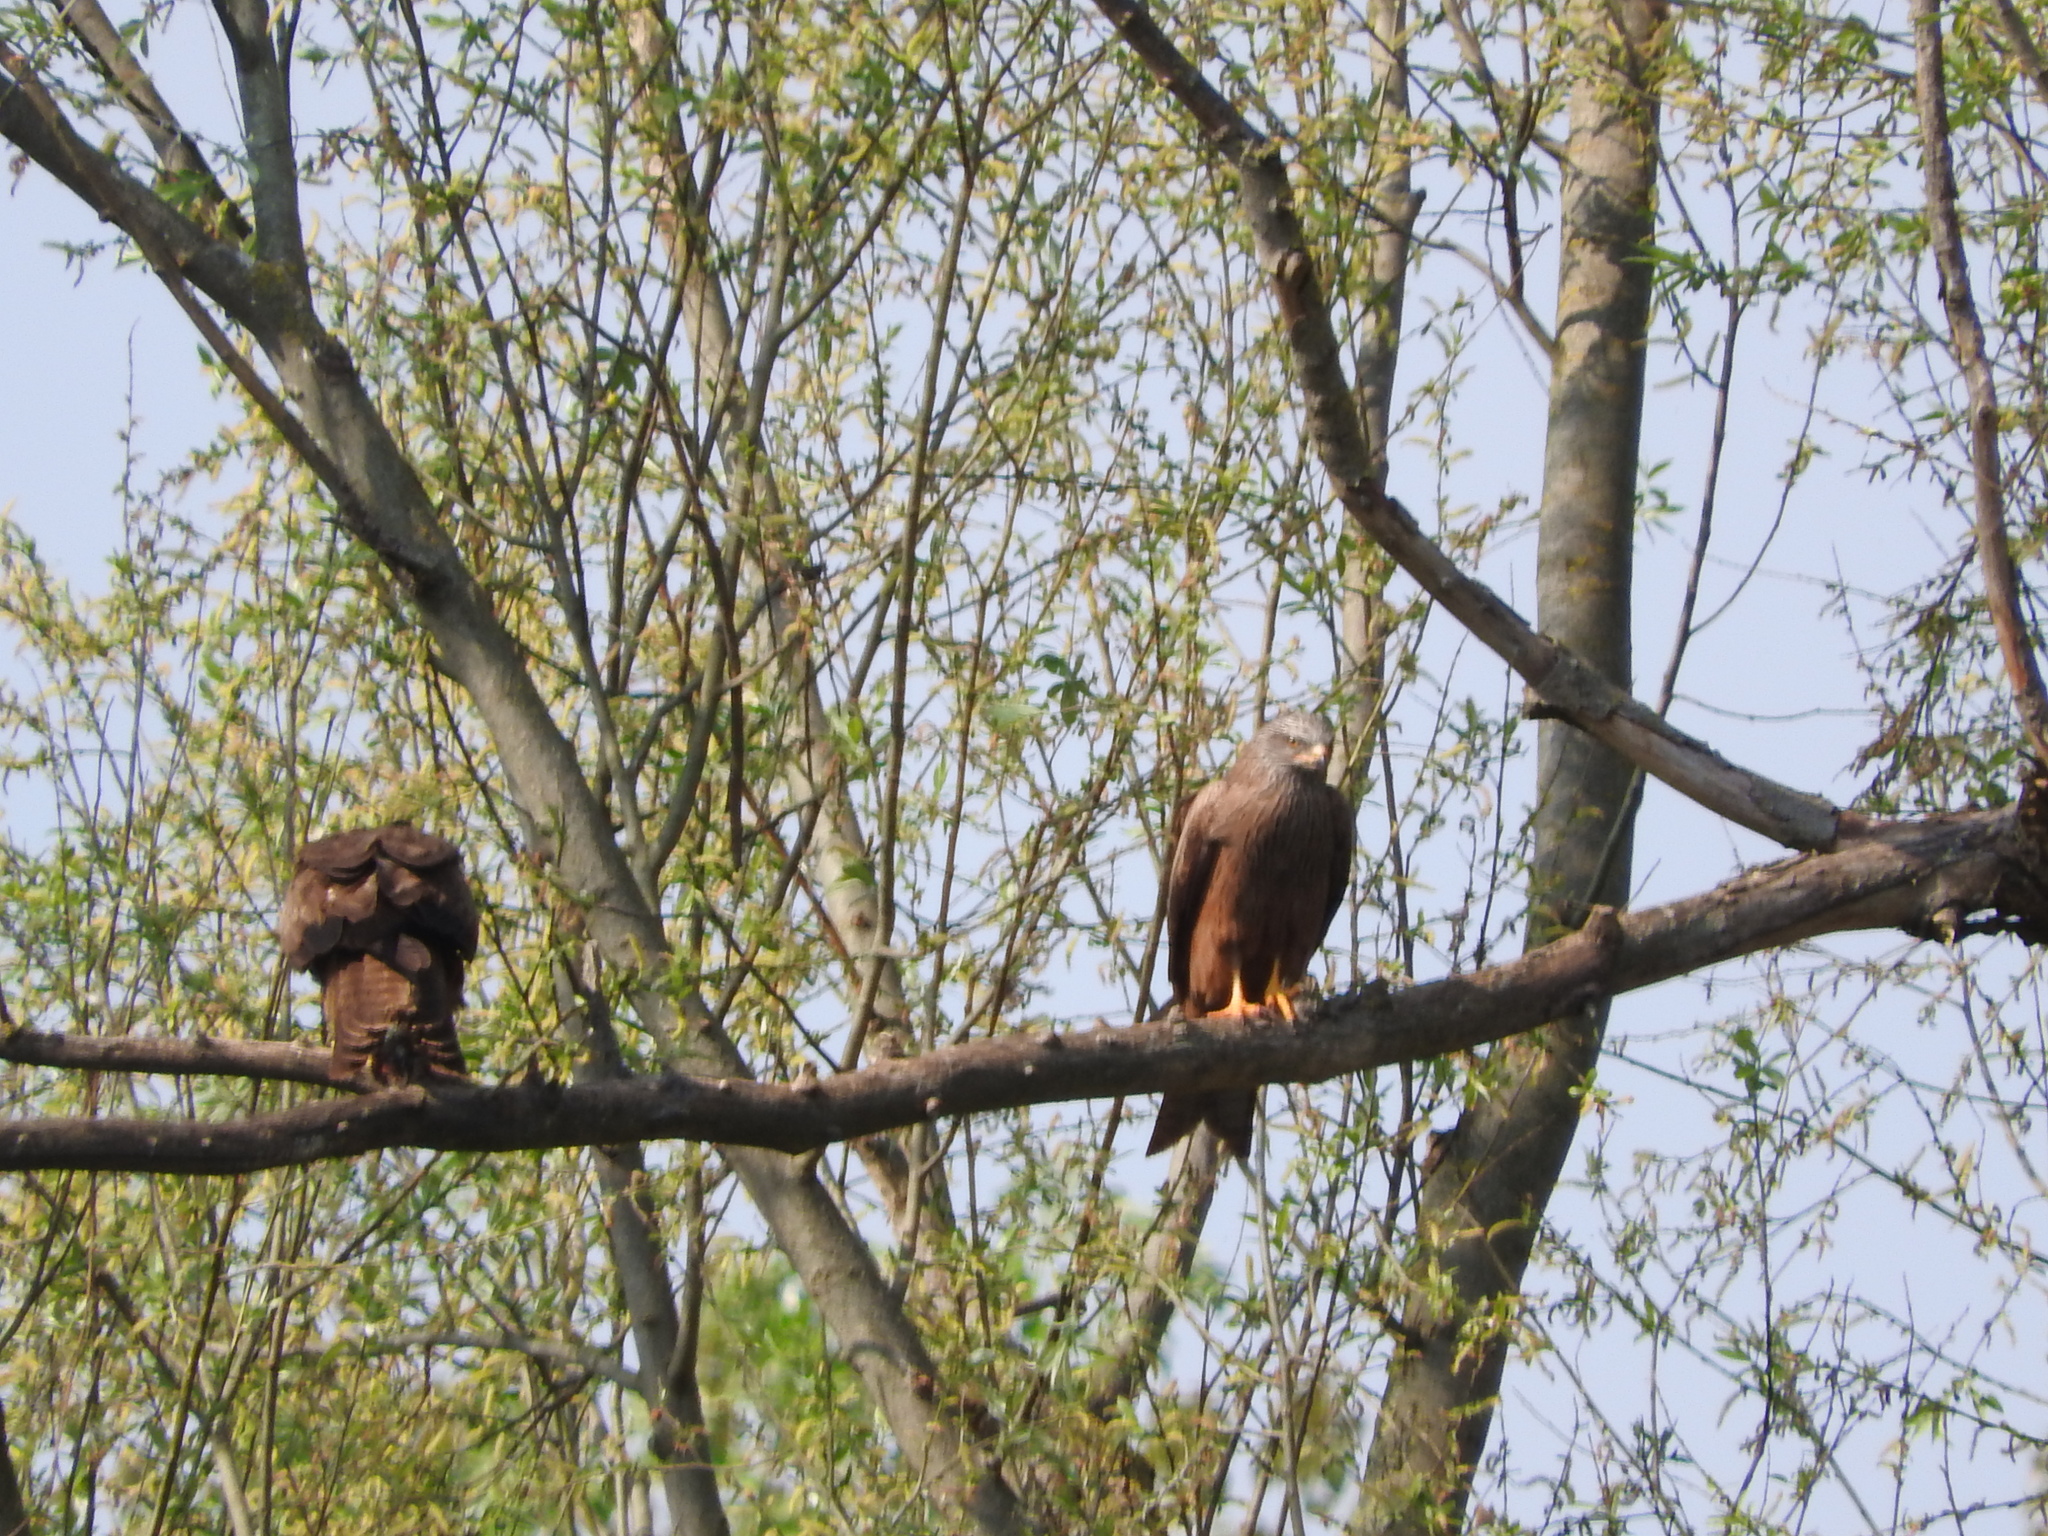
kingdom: Animalia
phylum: Chordata
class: Aves
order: Accipitriformes
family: Accipitridae
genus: Milvus
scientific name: Milvus migrans
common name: Black kite
